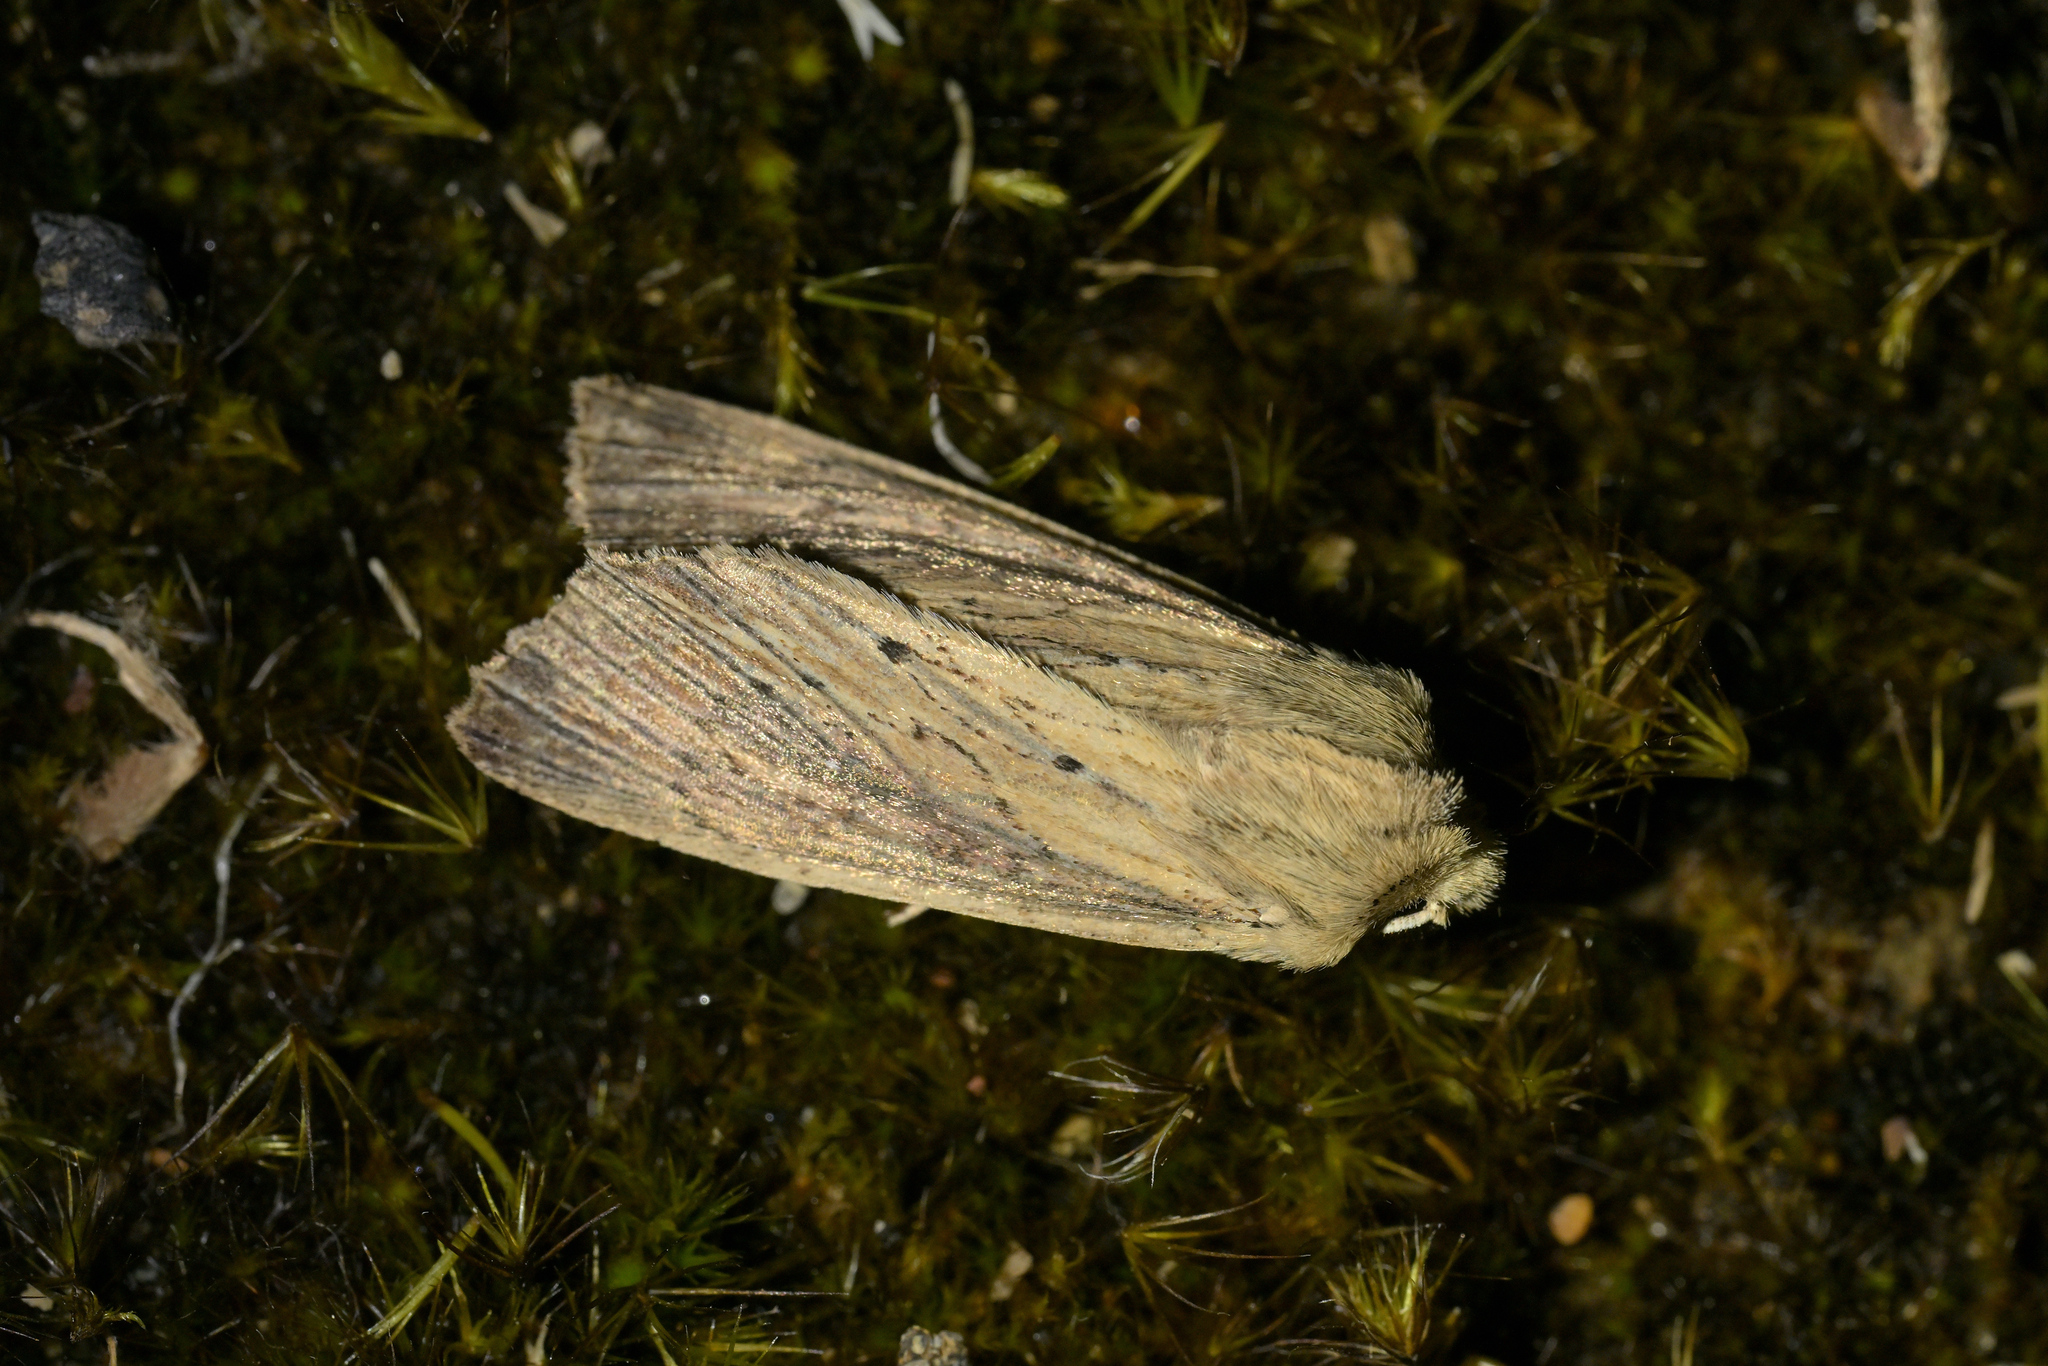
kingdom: Animalia
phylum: Arthropoda
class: Insecta
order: Lepidoptera
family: Noctuidae
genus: Ichneutica
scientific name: Ichneutica arotis
